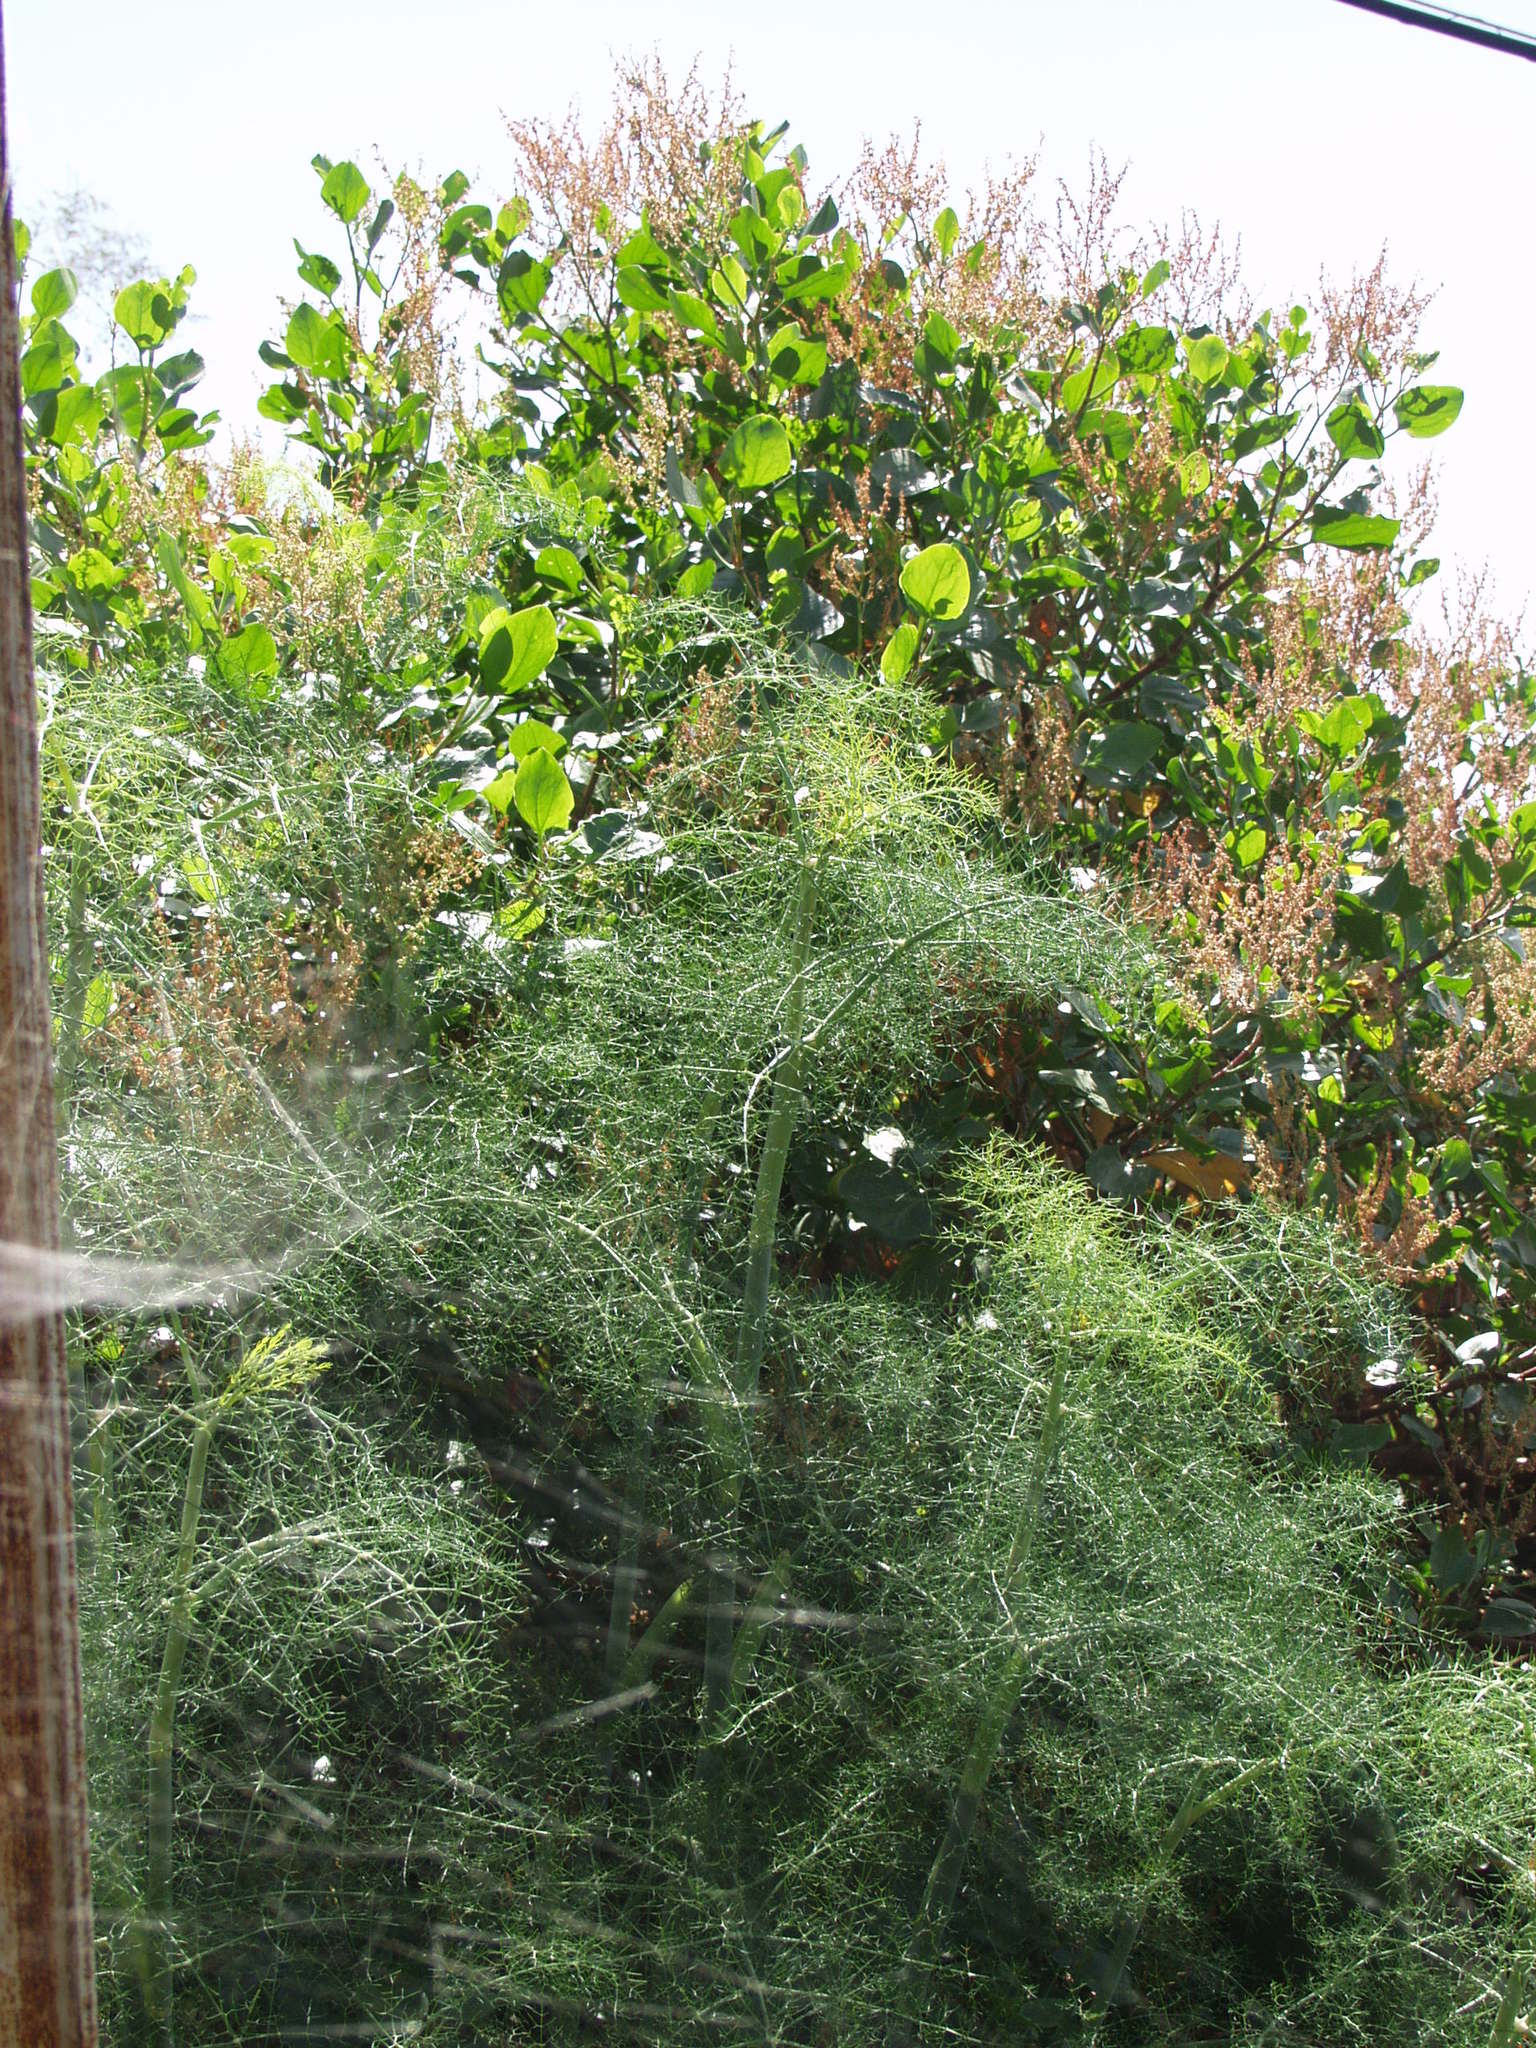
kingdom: Plantae
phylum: Tracheophyta
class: Magnoliopsida
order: Apiales
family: Apiaceae
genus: Foeniculum
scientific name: Foeniculum vulgare
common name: Fennel
